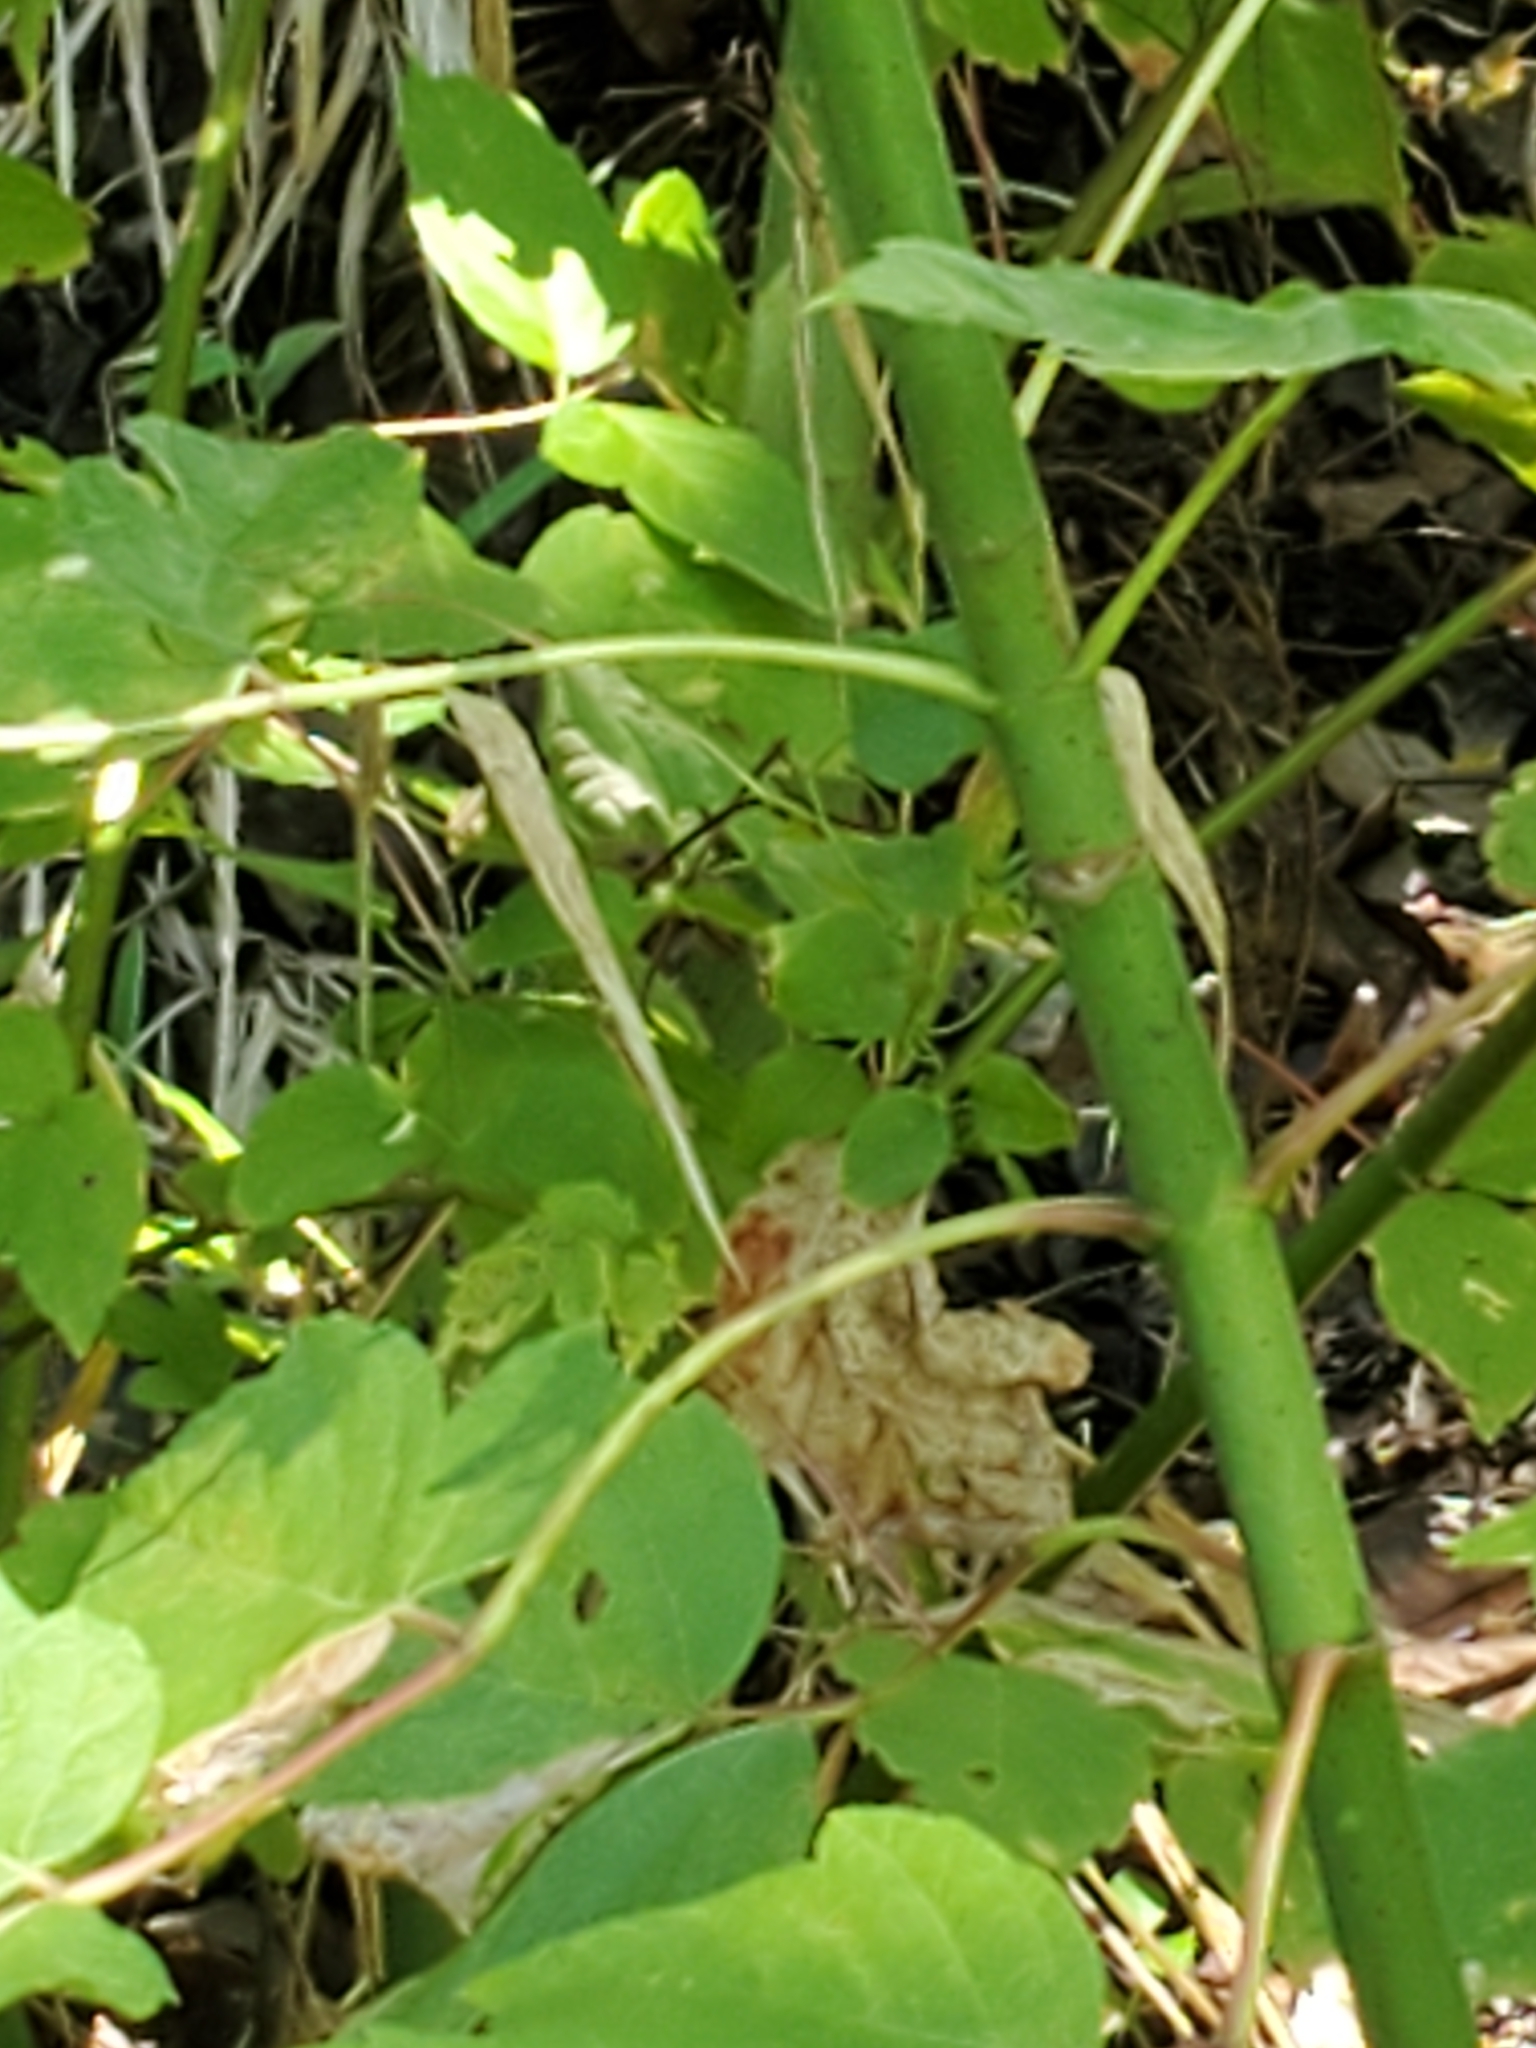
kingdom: Plantae
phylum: Tracheophyta
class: Magnoliopsida
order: Sapindales
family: Sapindaceae
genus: Acer
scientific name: Acer negundo
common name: Ashleaf maple
